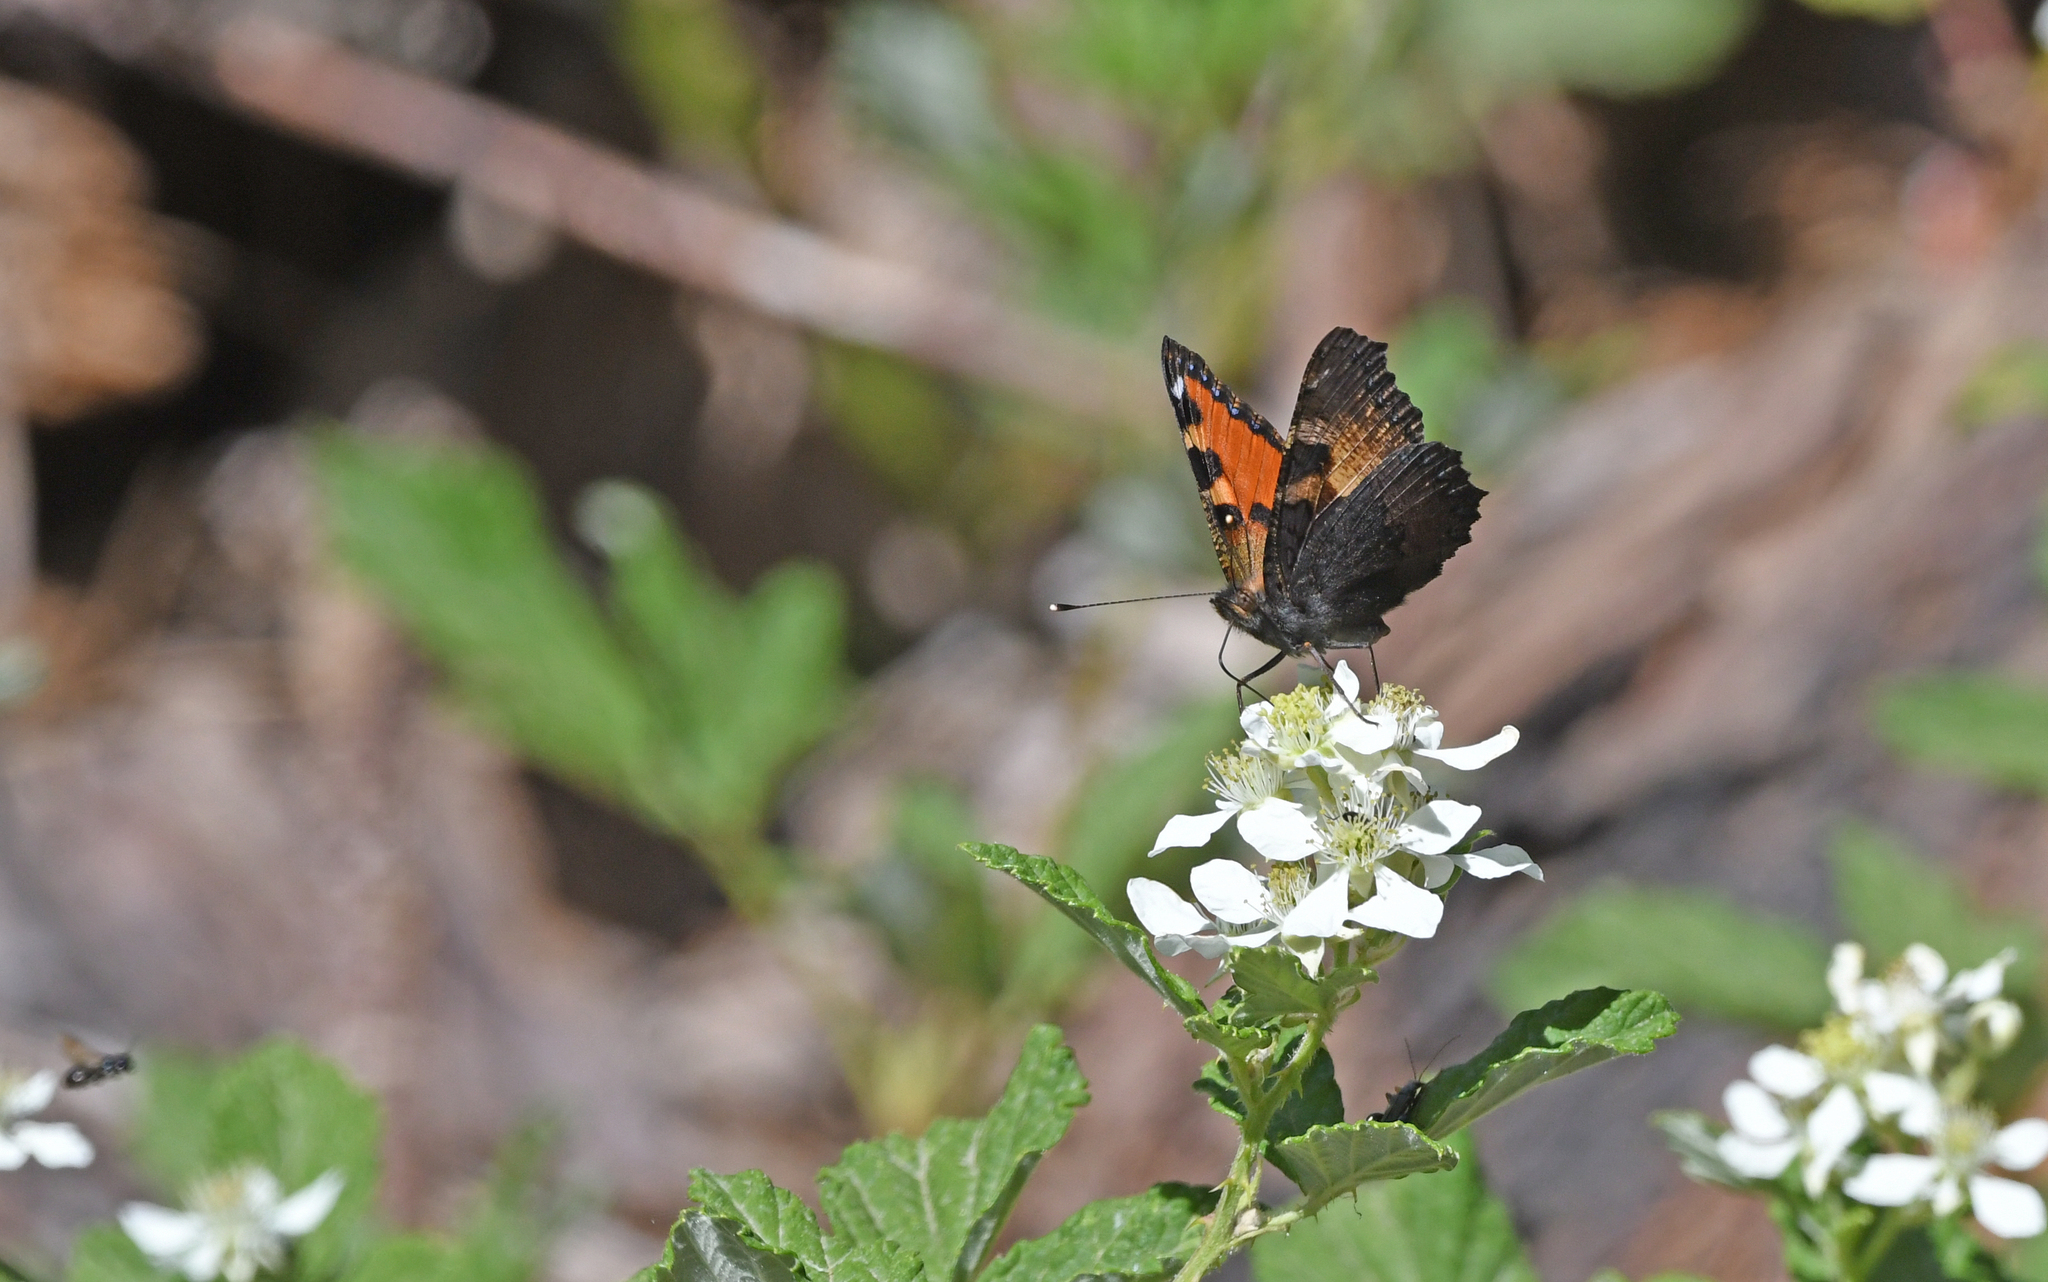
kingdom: Animalia
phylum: Arthropoda
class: Insecta
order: Lepidoptera
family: Nymphalidae
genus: Aglais
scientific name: Aglais ichnusa
